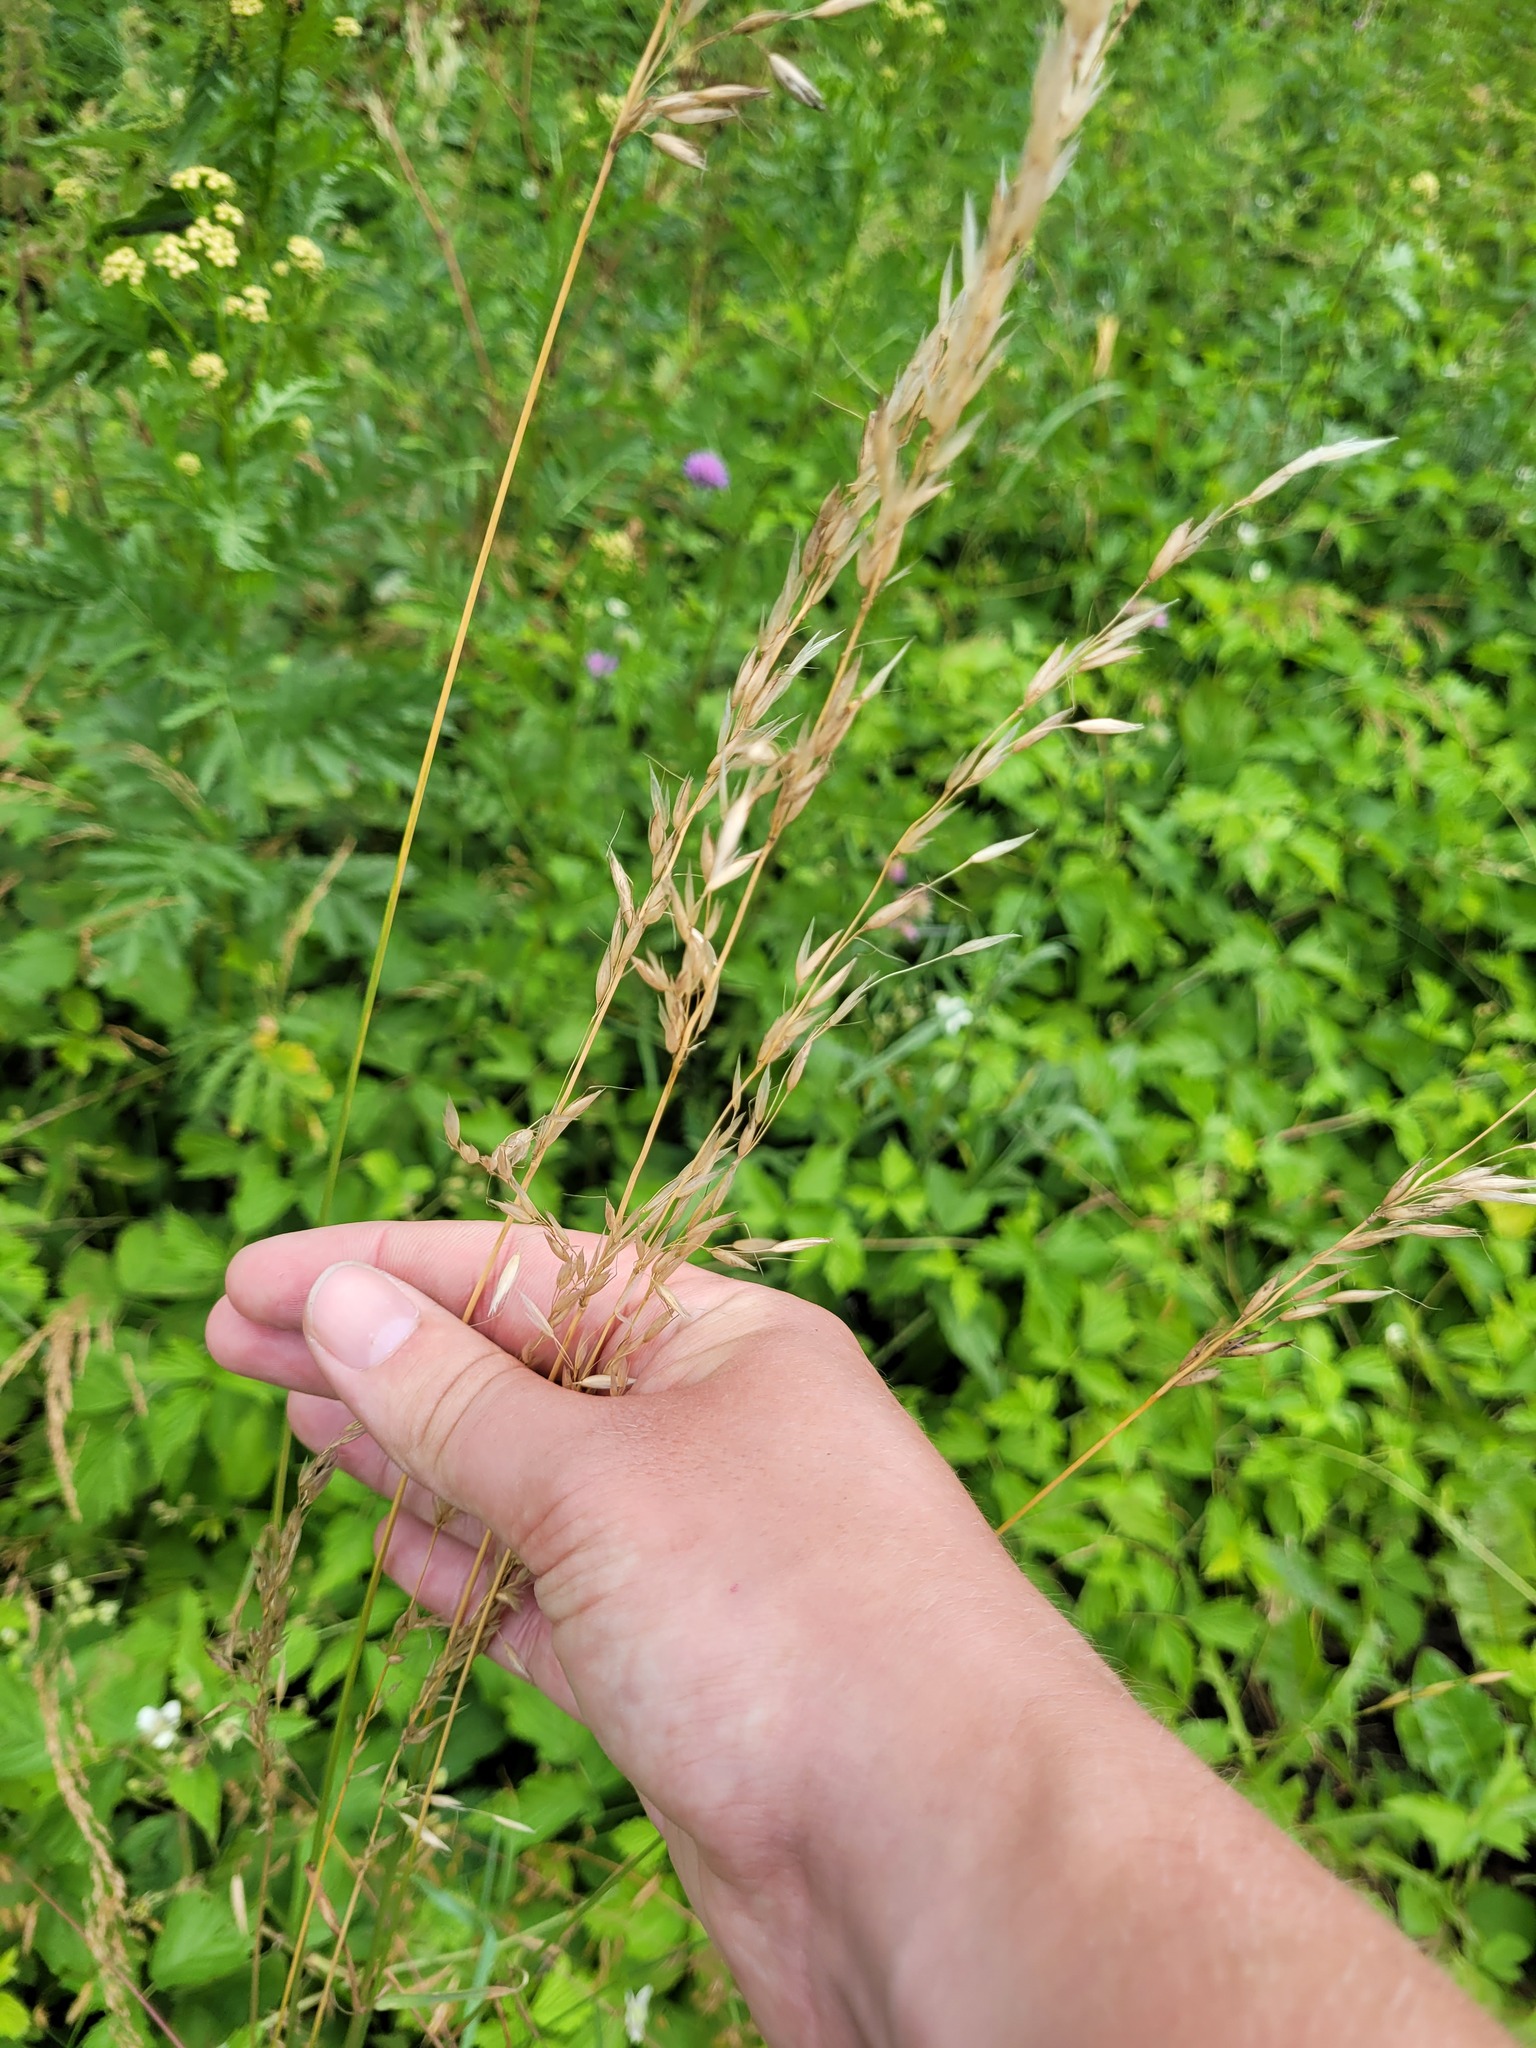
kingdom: Plantae
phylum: Tracheophyta
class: Liliopsida
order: Poales
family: Poaceae
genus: Arrhenatherum
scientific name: Arrhenatherum elatius
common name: Tall oatgrass
